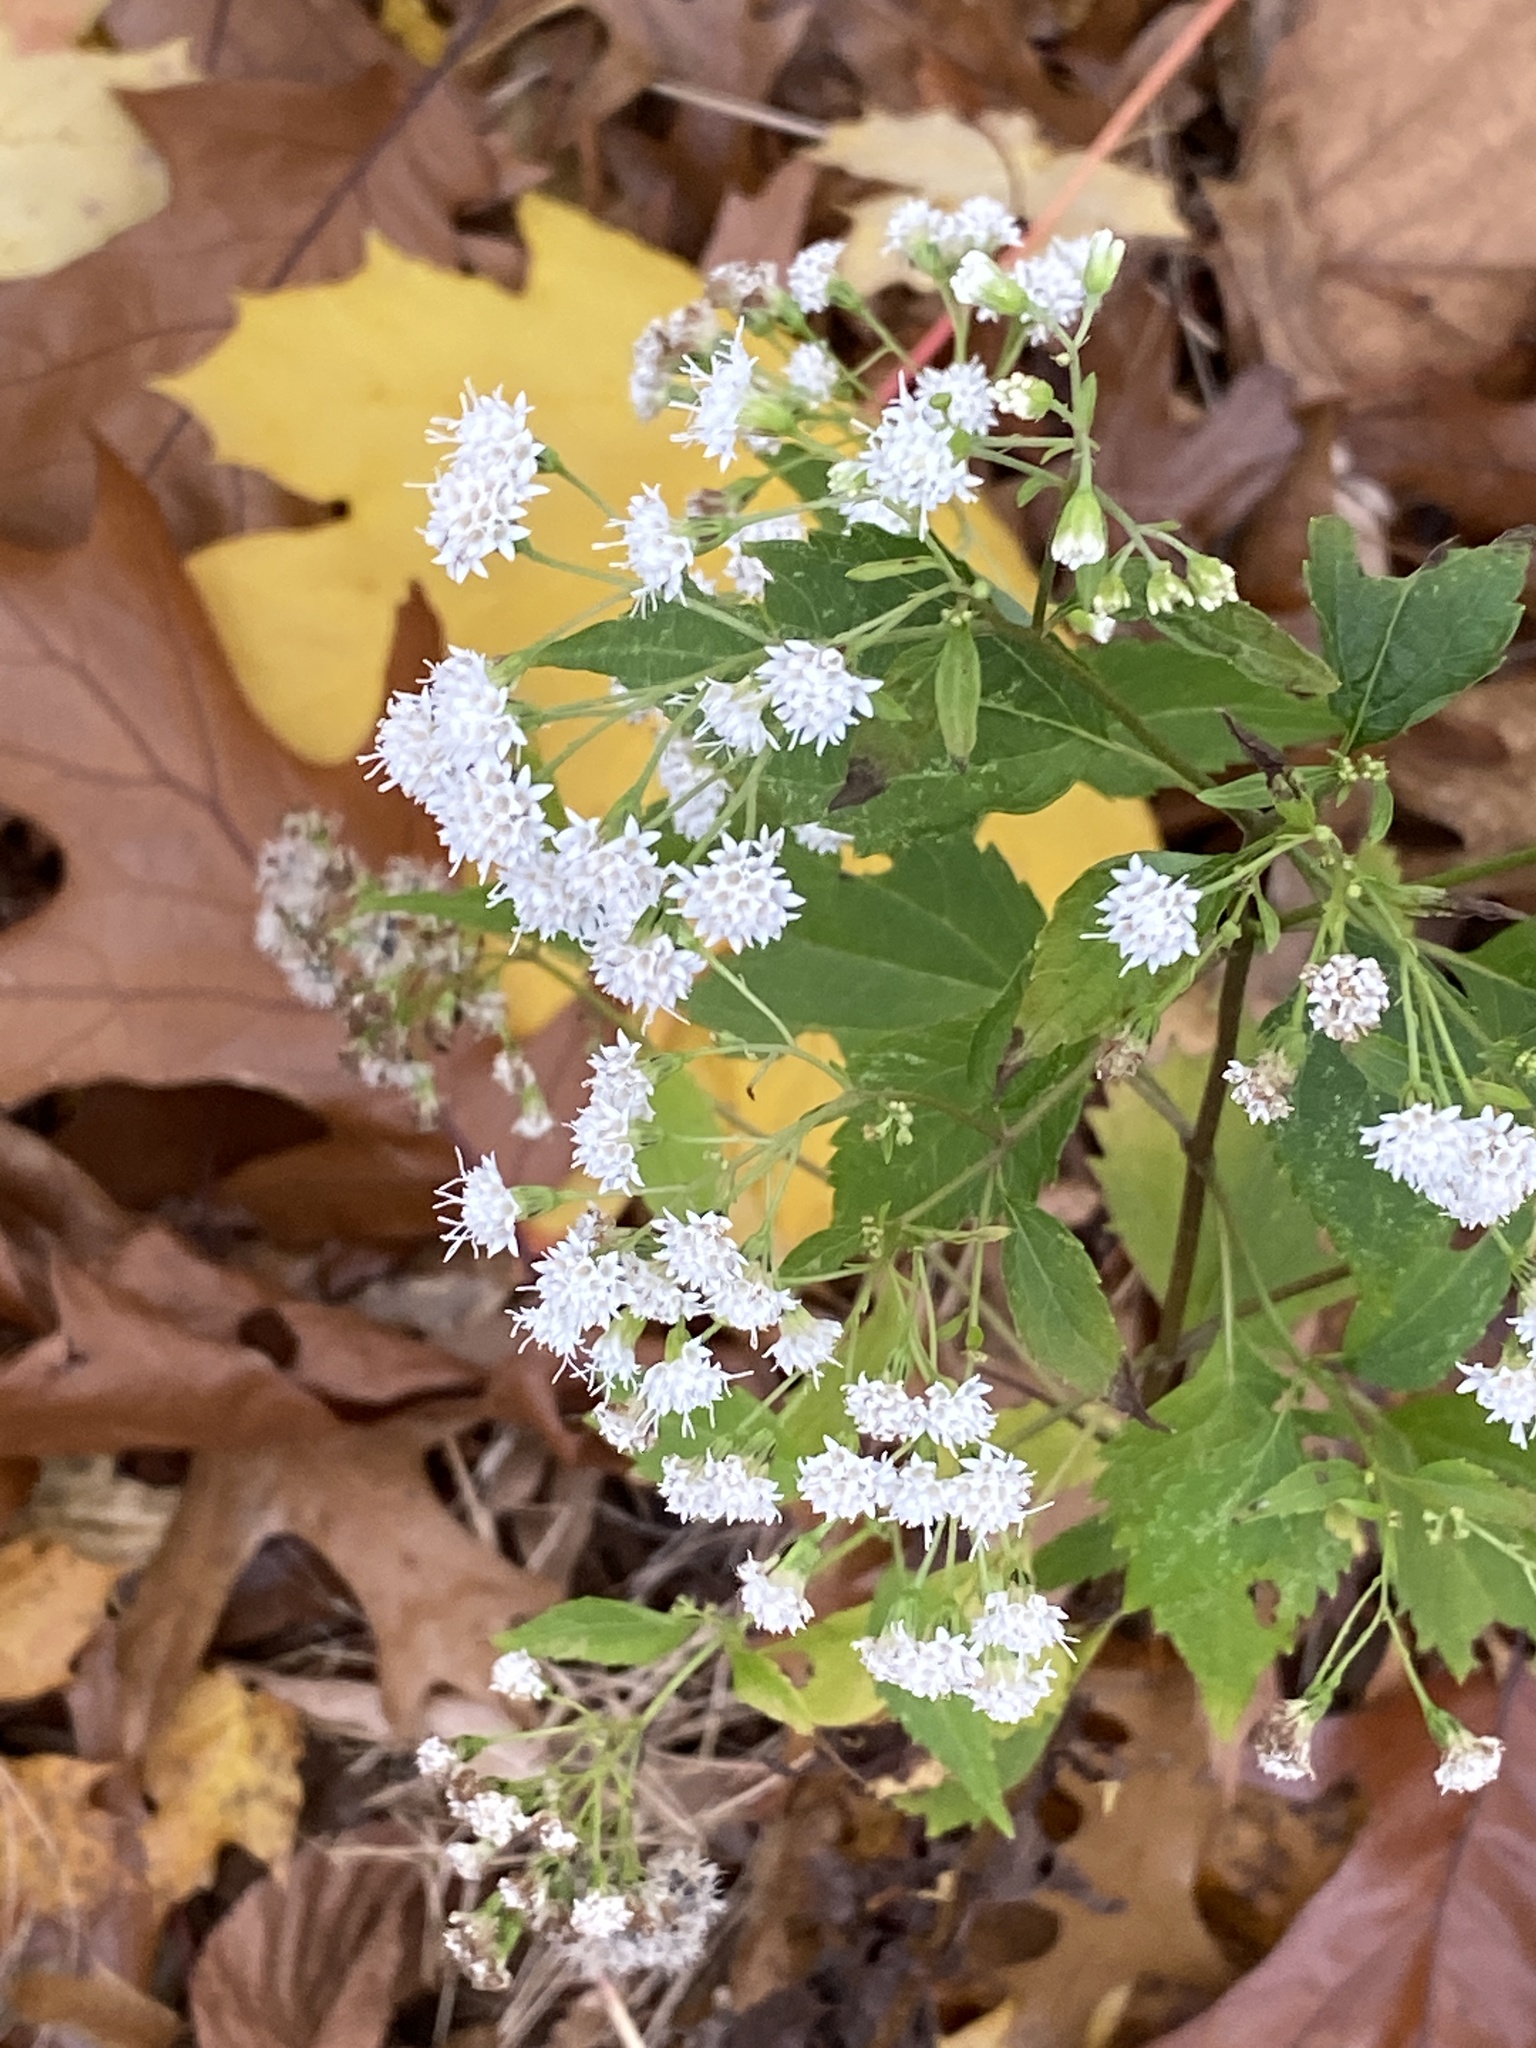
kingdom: Plantae
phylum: Tracheophyta
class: Magnoliopsida
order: Asterales
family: Asteraceae
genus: Ageratina
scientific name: Ageratina altissima
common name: White snakeroot
